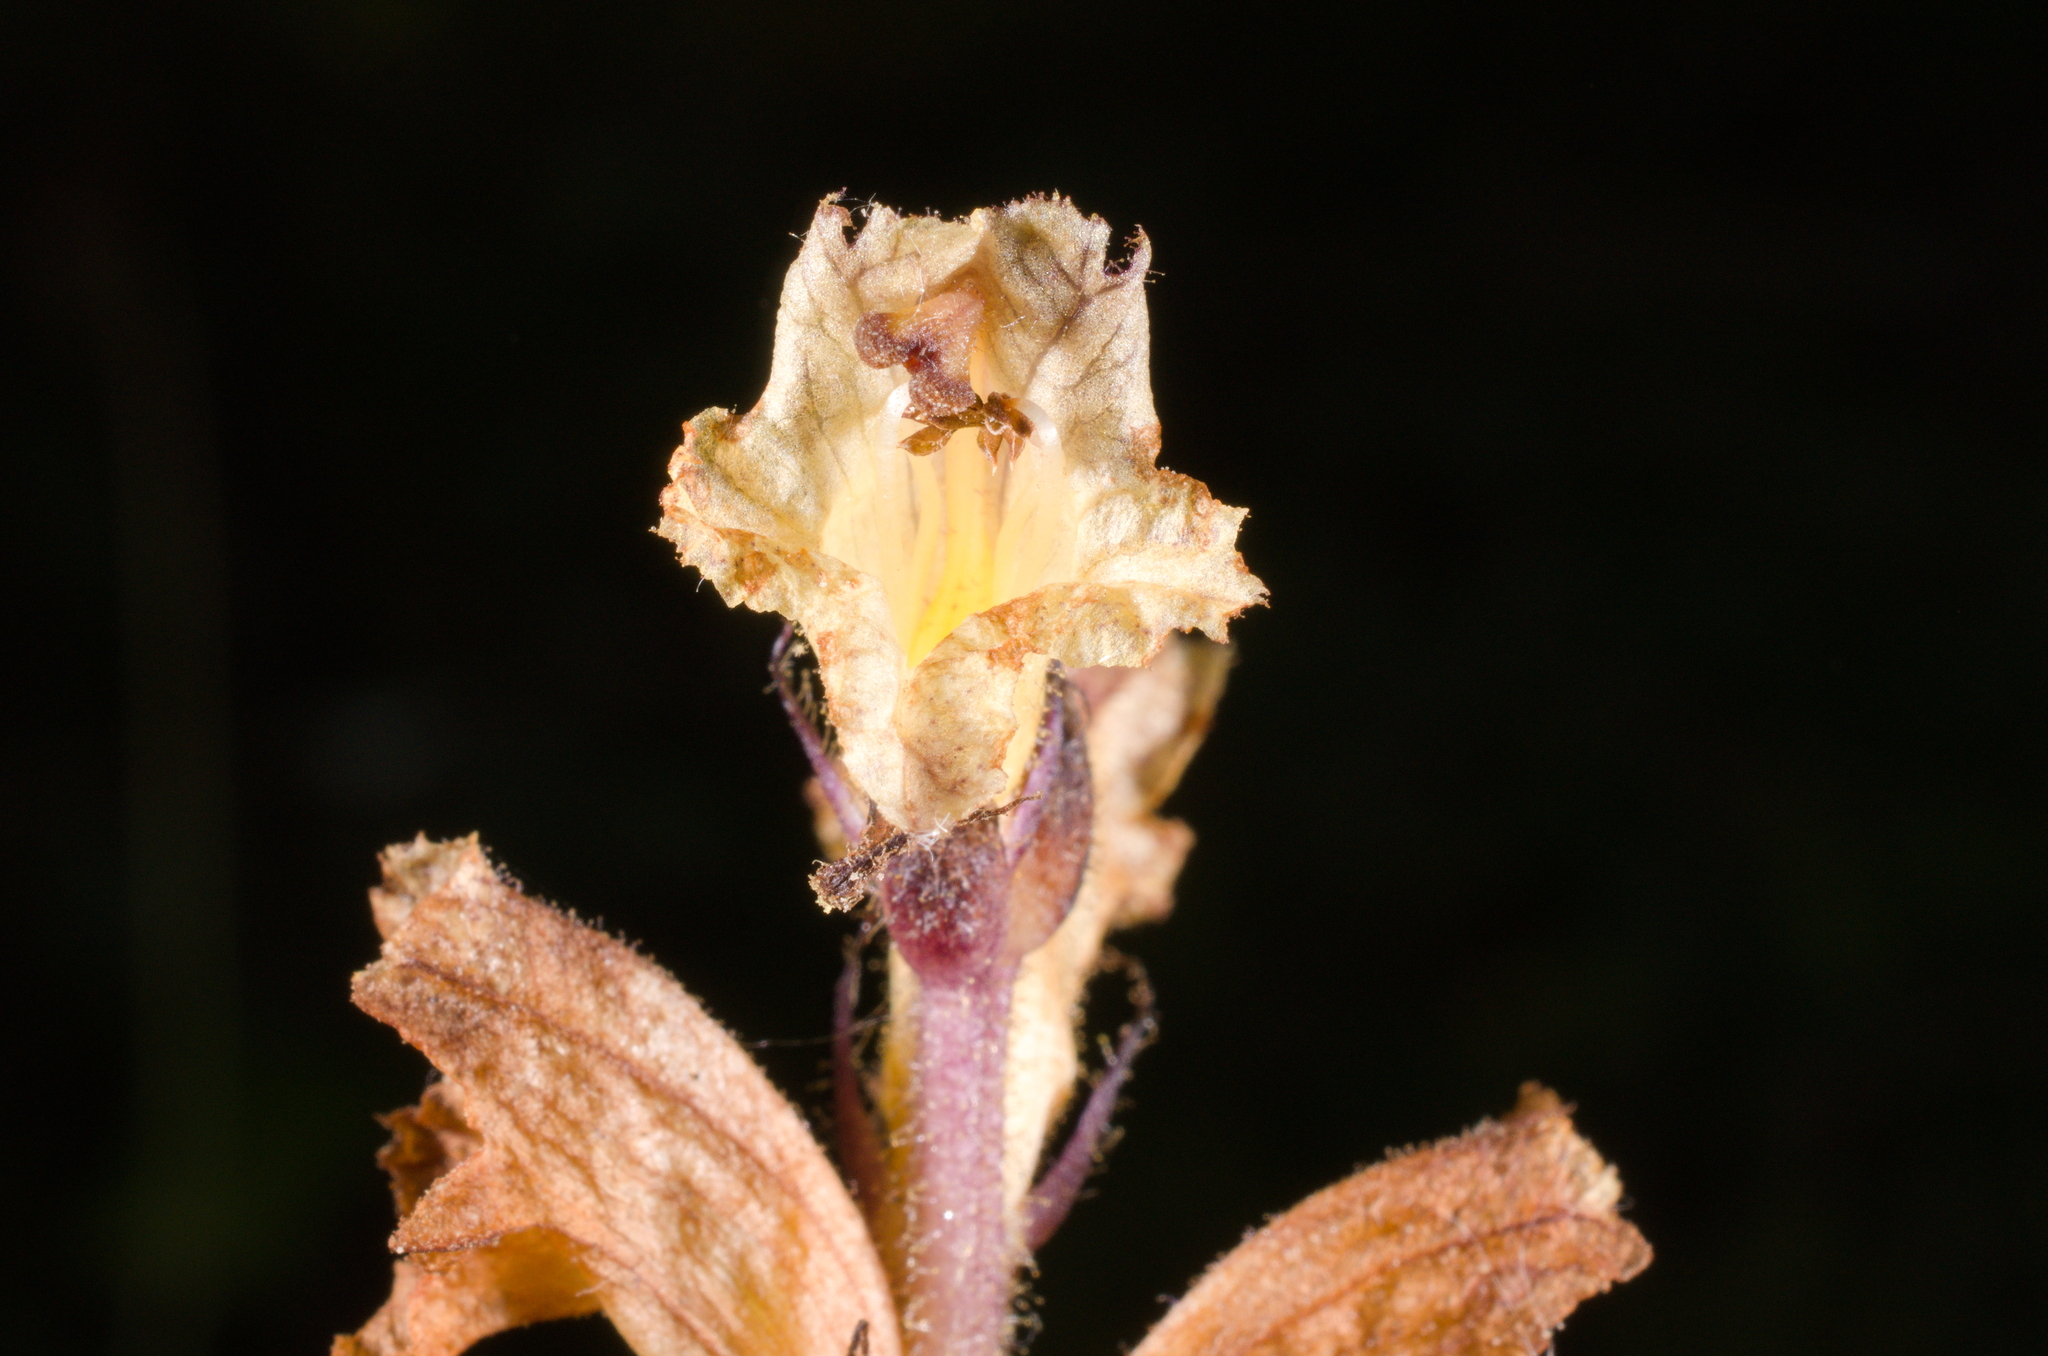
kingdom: Plantae
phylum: Tracheophyta
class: Magnoliopsida
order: Lamiales
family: Orobanchaceae
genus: Orobanche
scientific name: Orobanche reticulata
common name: Thistle broomrape
